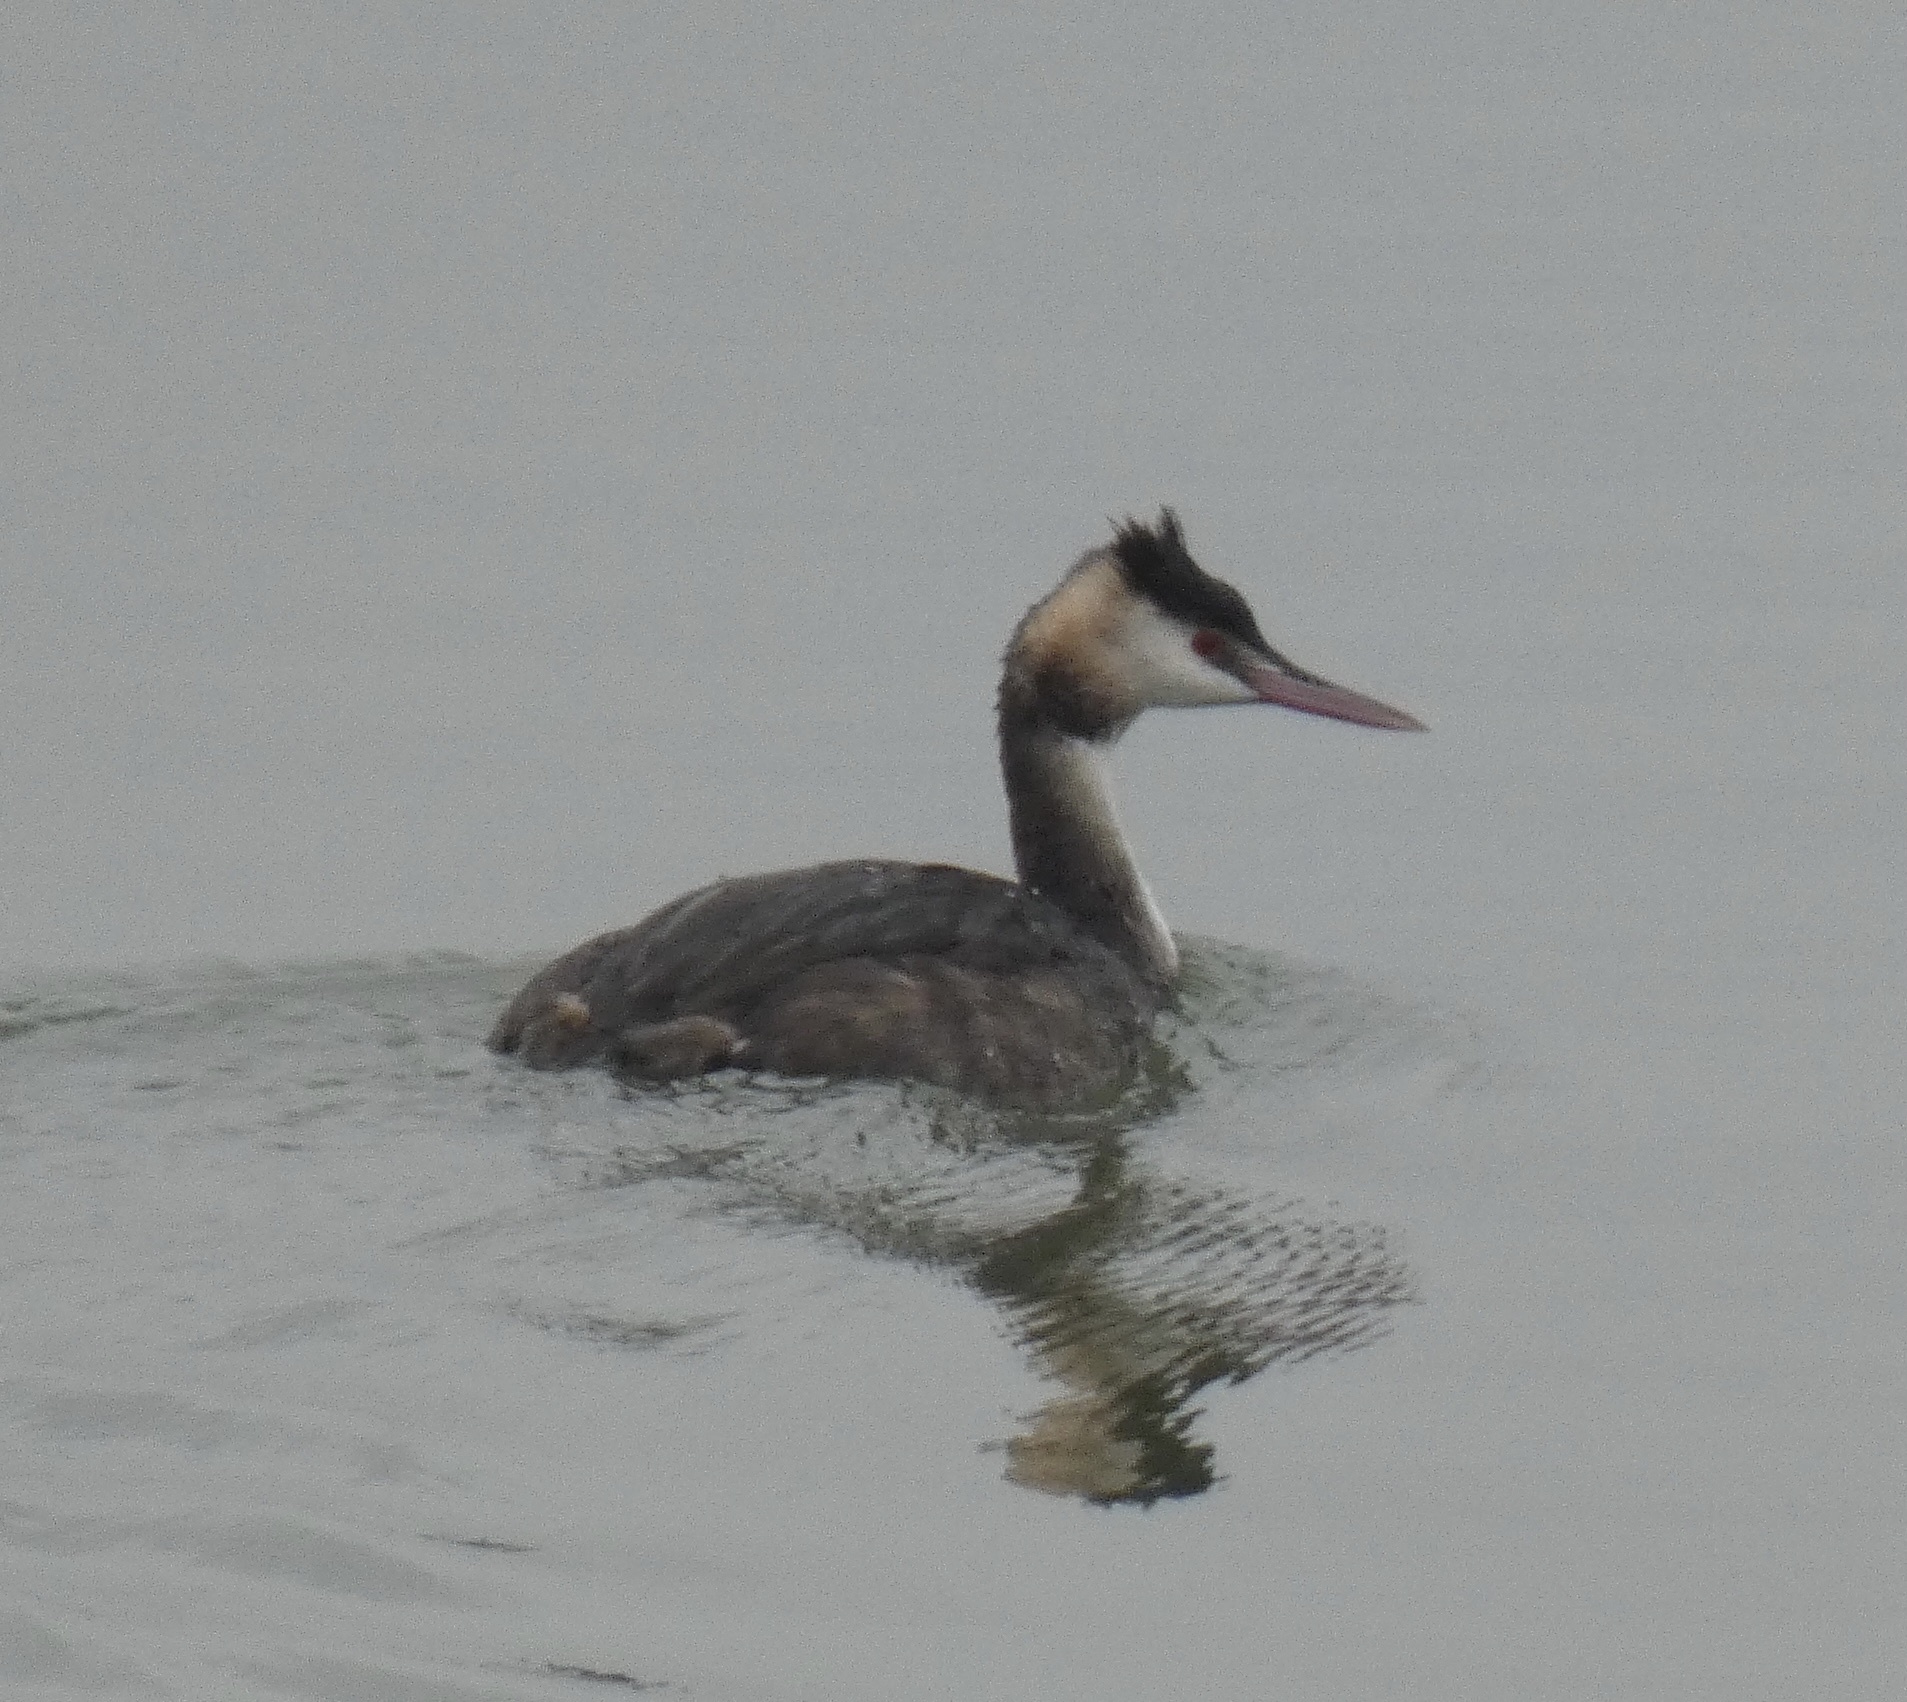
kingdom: Animalia
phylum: Chordata
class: Aves
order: Podicipediformes
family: Podicipedidae
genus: Podiceps
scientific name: Podiceps cristatus
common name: Great crested grebe
